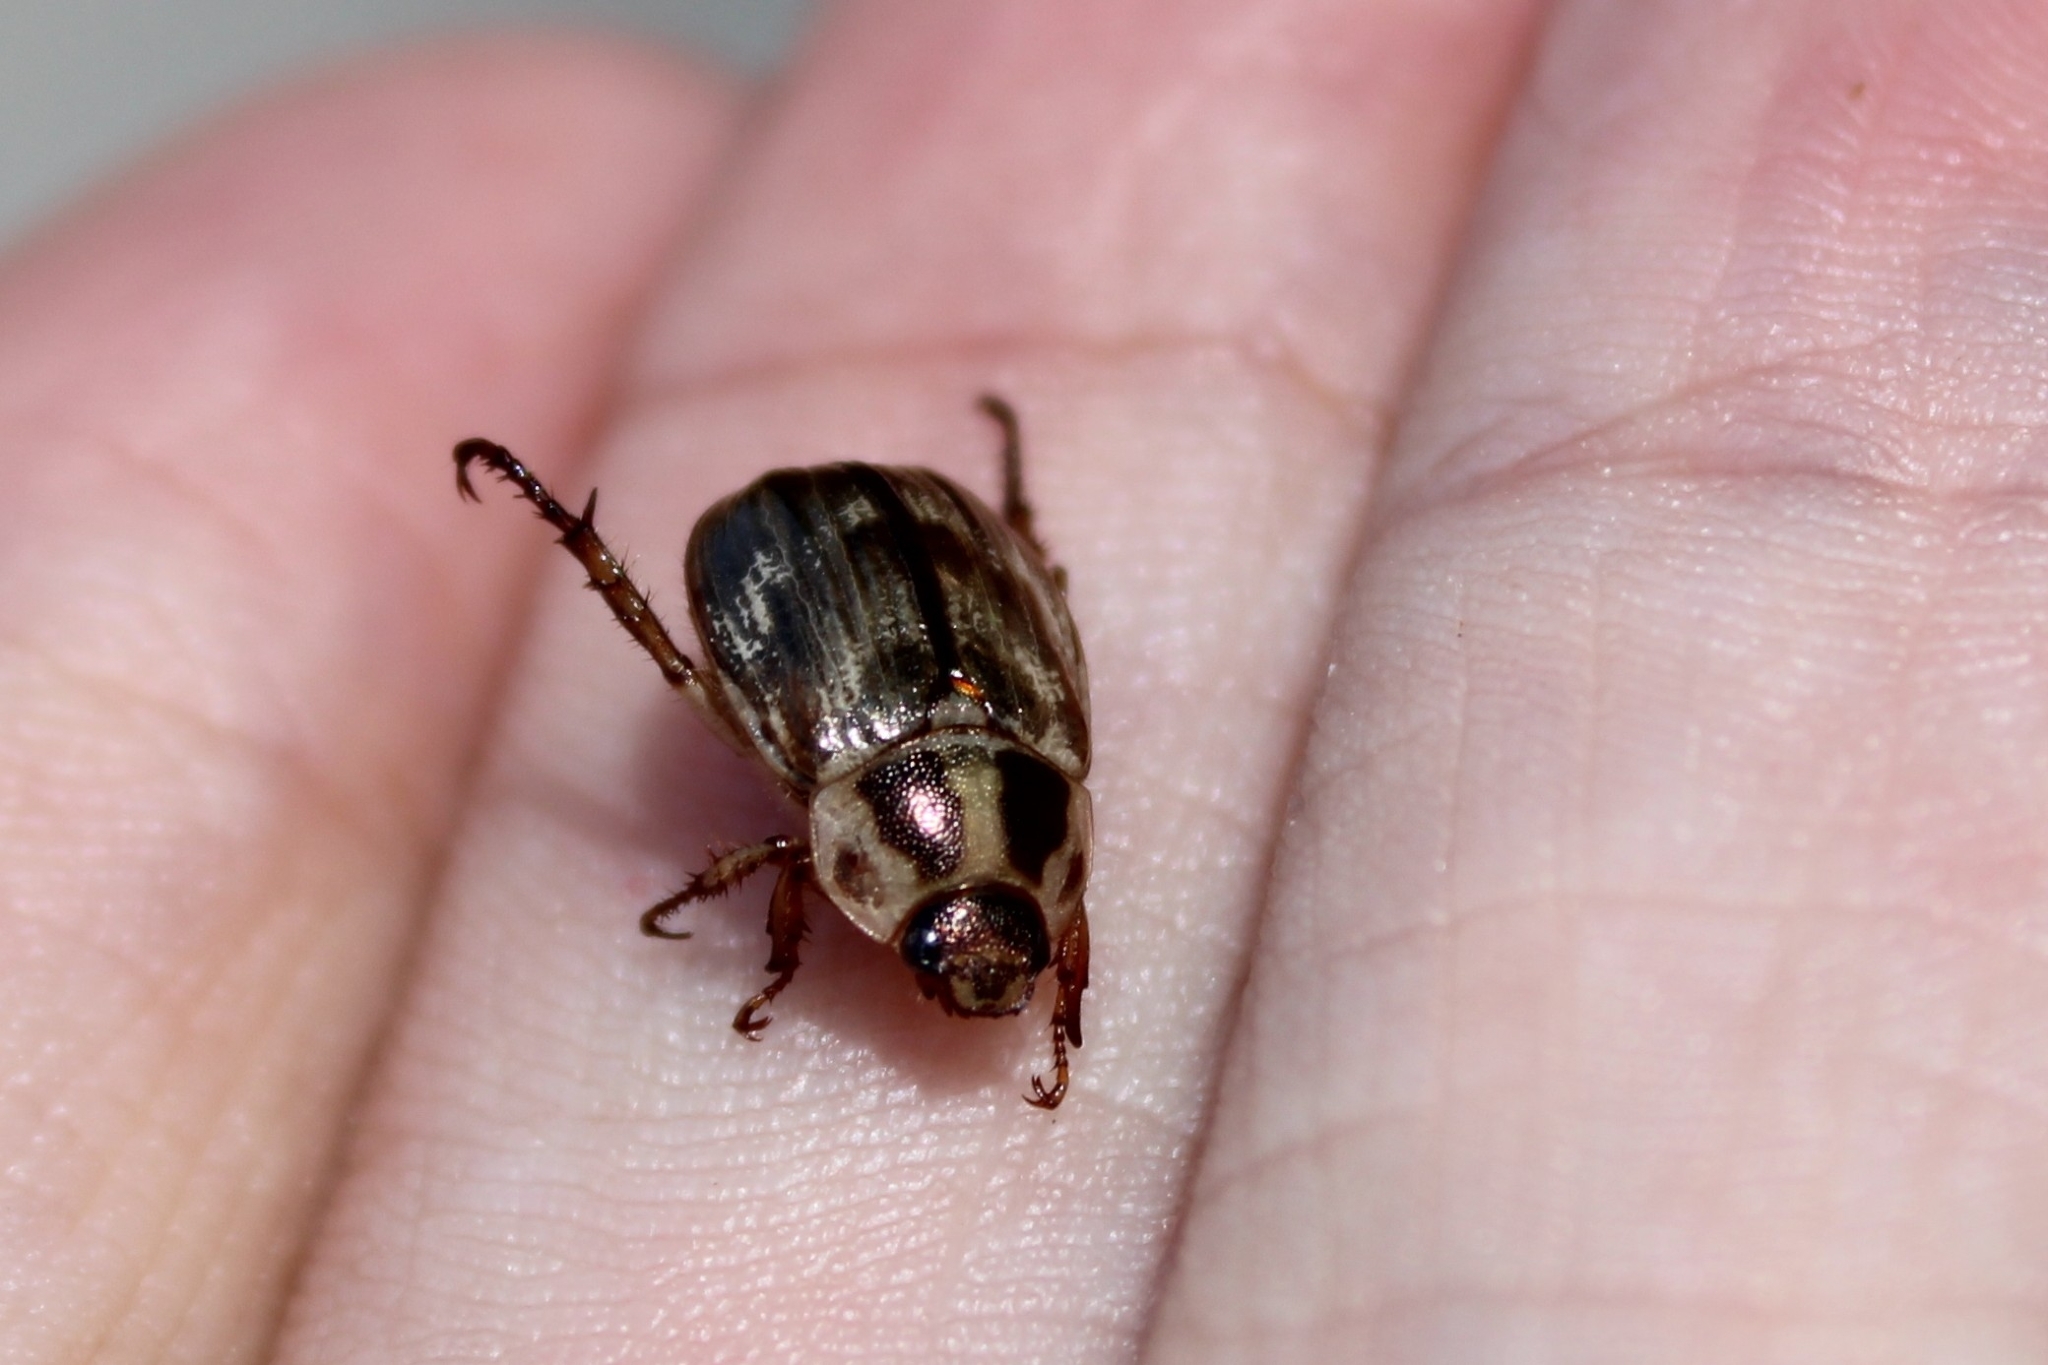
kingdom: Animalia
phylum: Arthropoda
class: Insecta
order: Coleoptera
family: Scarabaeidae
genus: Exomala
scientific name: Exomala orientalis
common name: Oriental beetle
